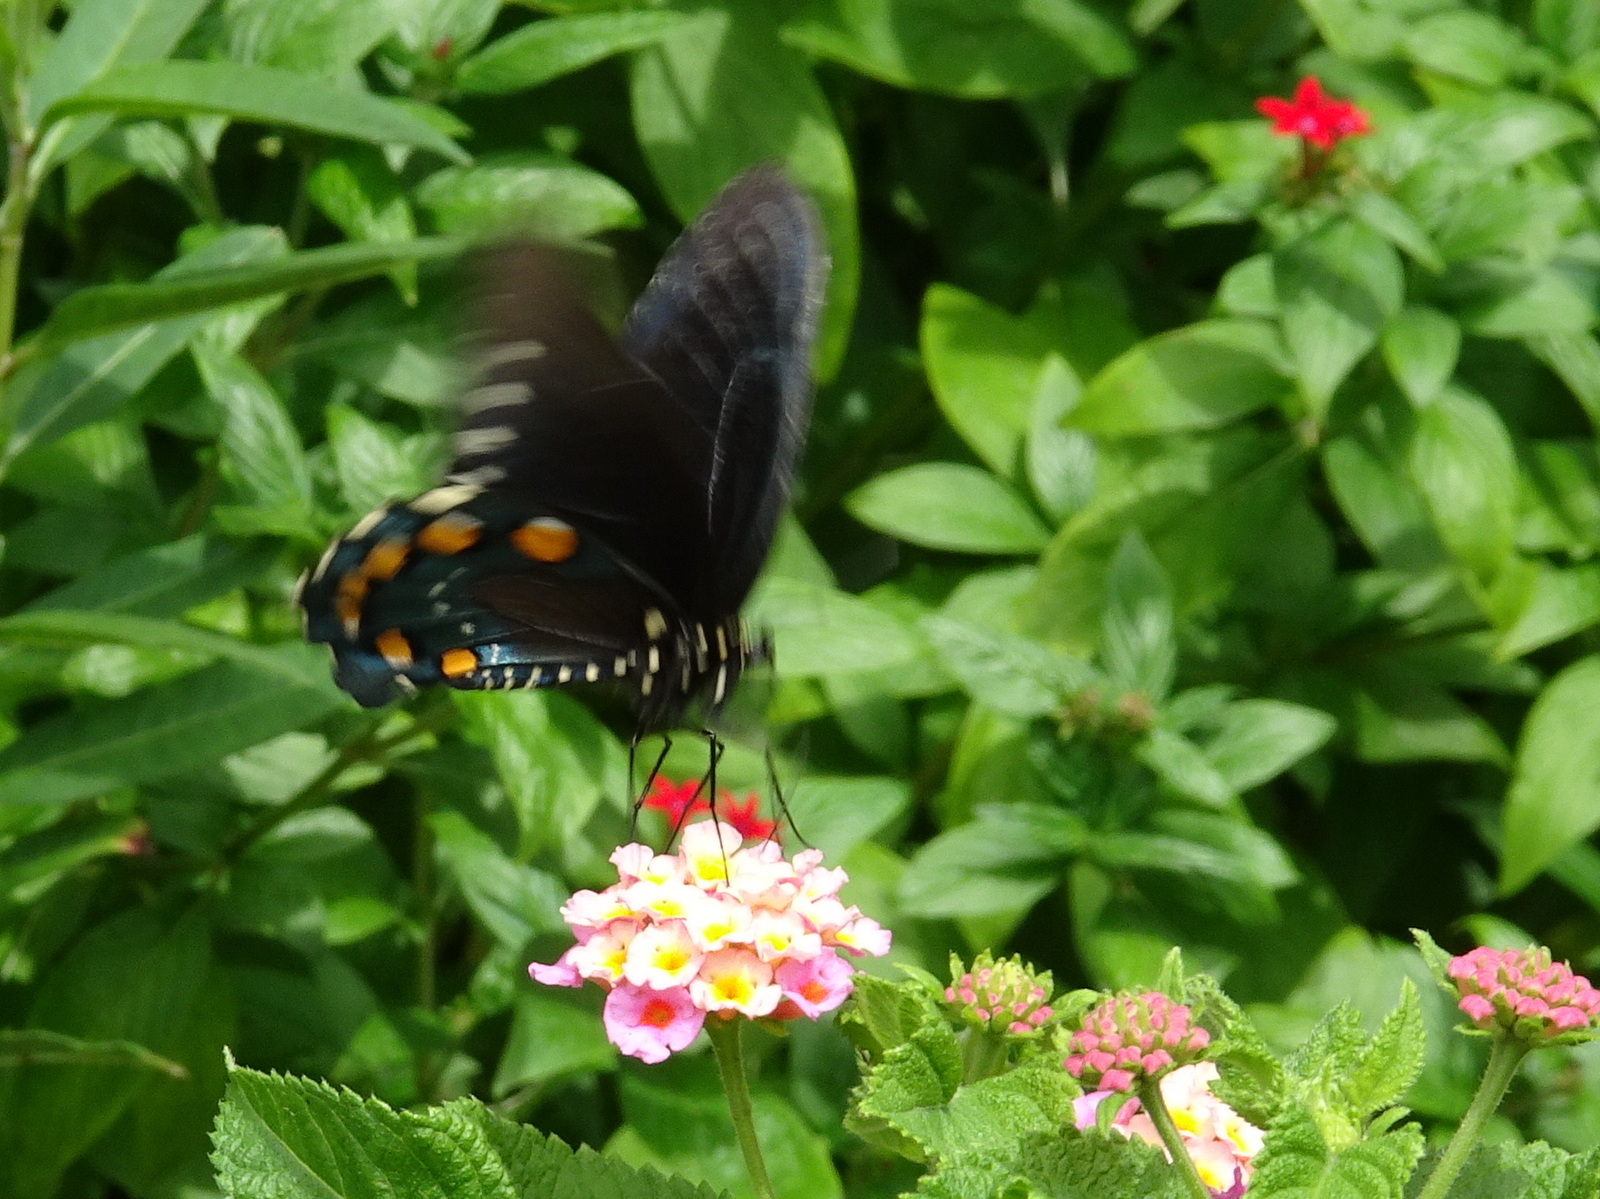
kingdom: Animalia
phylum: Arthropoda
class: Insecta
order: Lepidoptera
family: Papilionidae
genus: Battus
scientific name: Battus philenor
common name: Pipevine swallowtail
